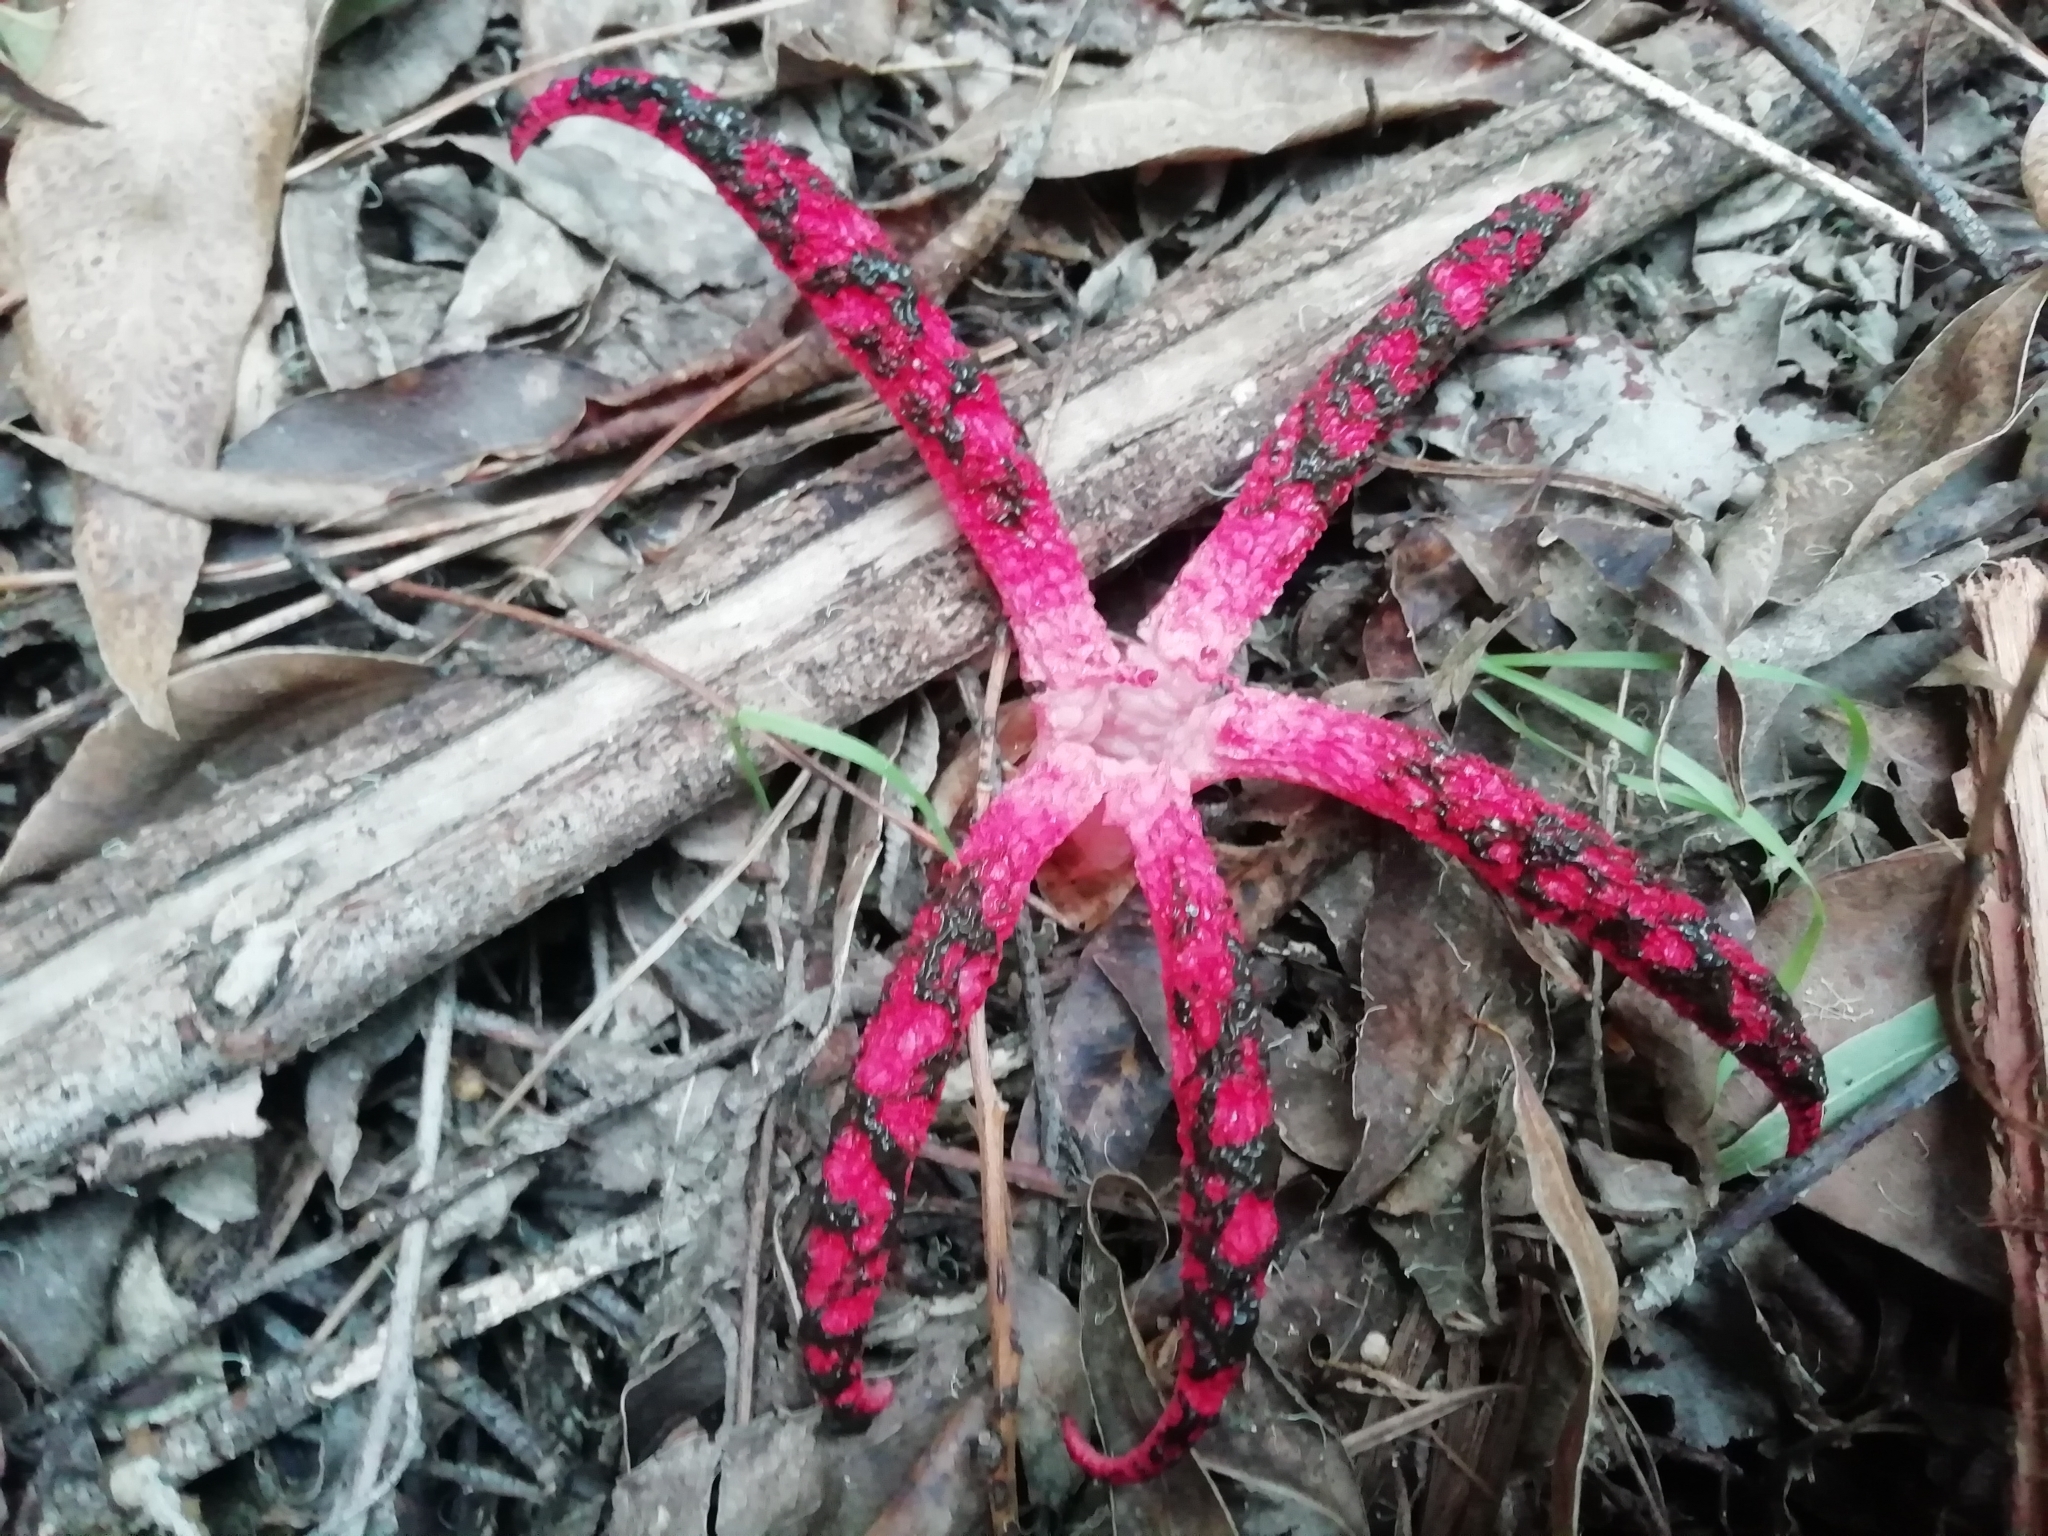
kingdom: Fungi
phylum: Basidiomycota
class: Agaricomycetes
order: Phallales
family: Phallaceae
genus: Clathrus
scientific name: Clathrus archeri
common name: Devil's fingers
